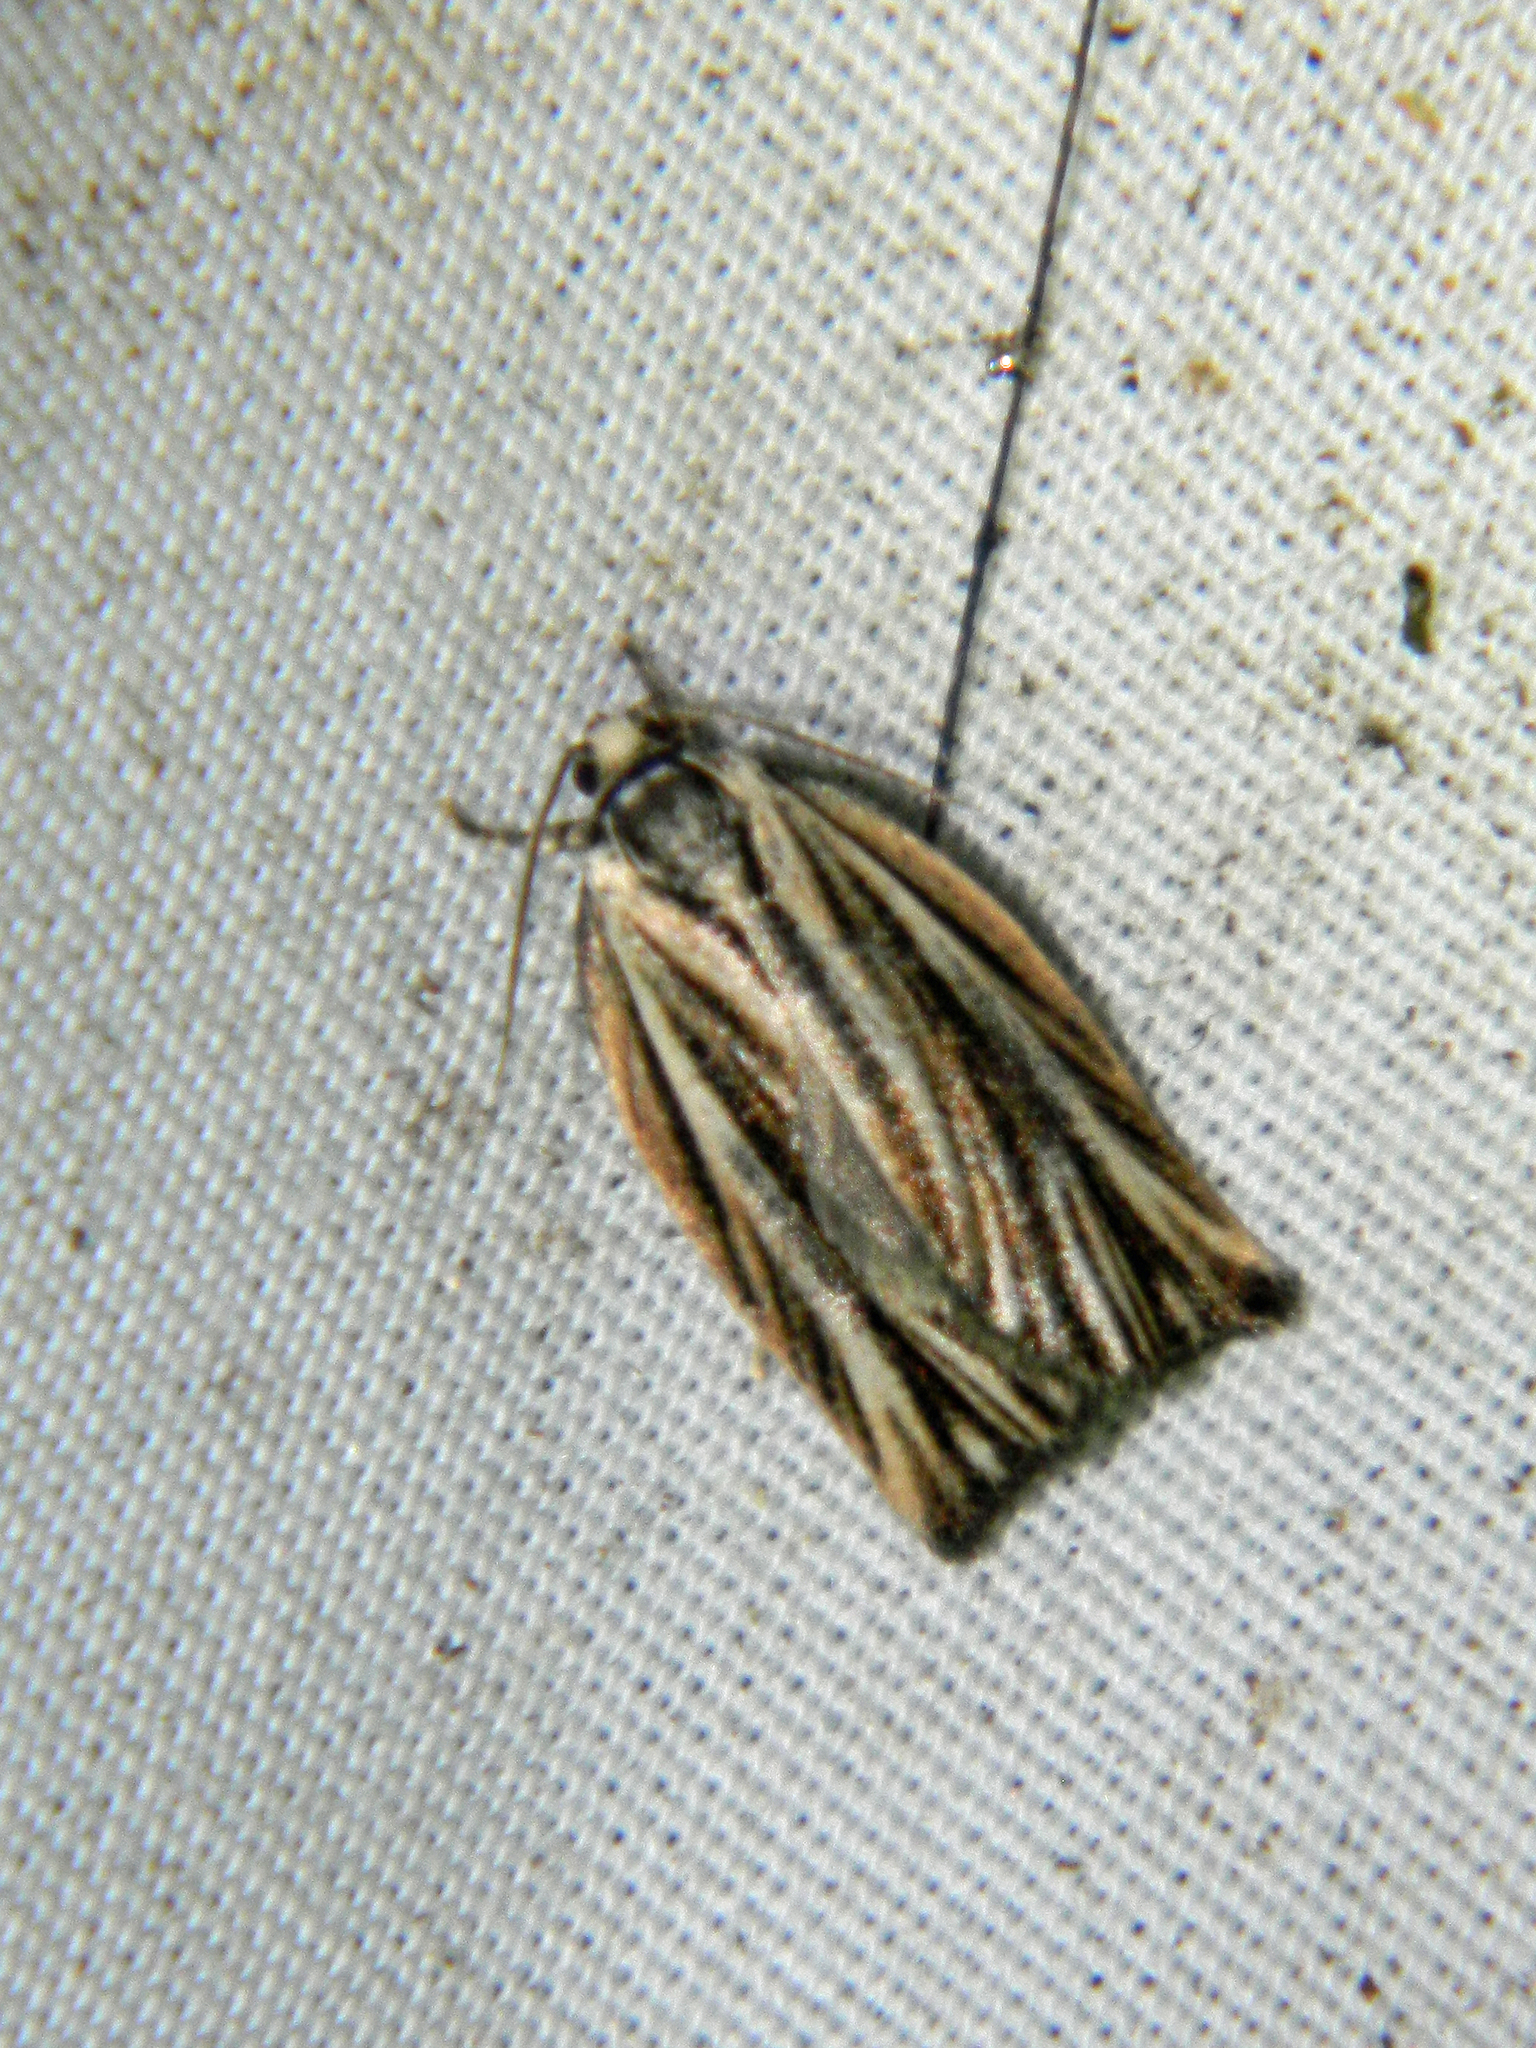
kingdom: Animalia
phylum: Arthropoda
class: Insecta
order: Lepidoptera
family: Tortricidae
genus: Archips
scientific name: Archips strianus
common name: Striated tortrix moth
